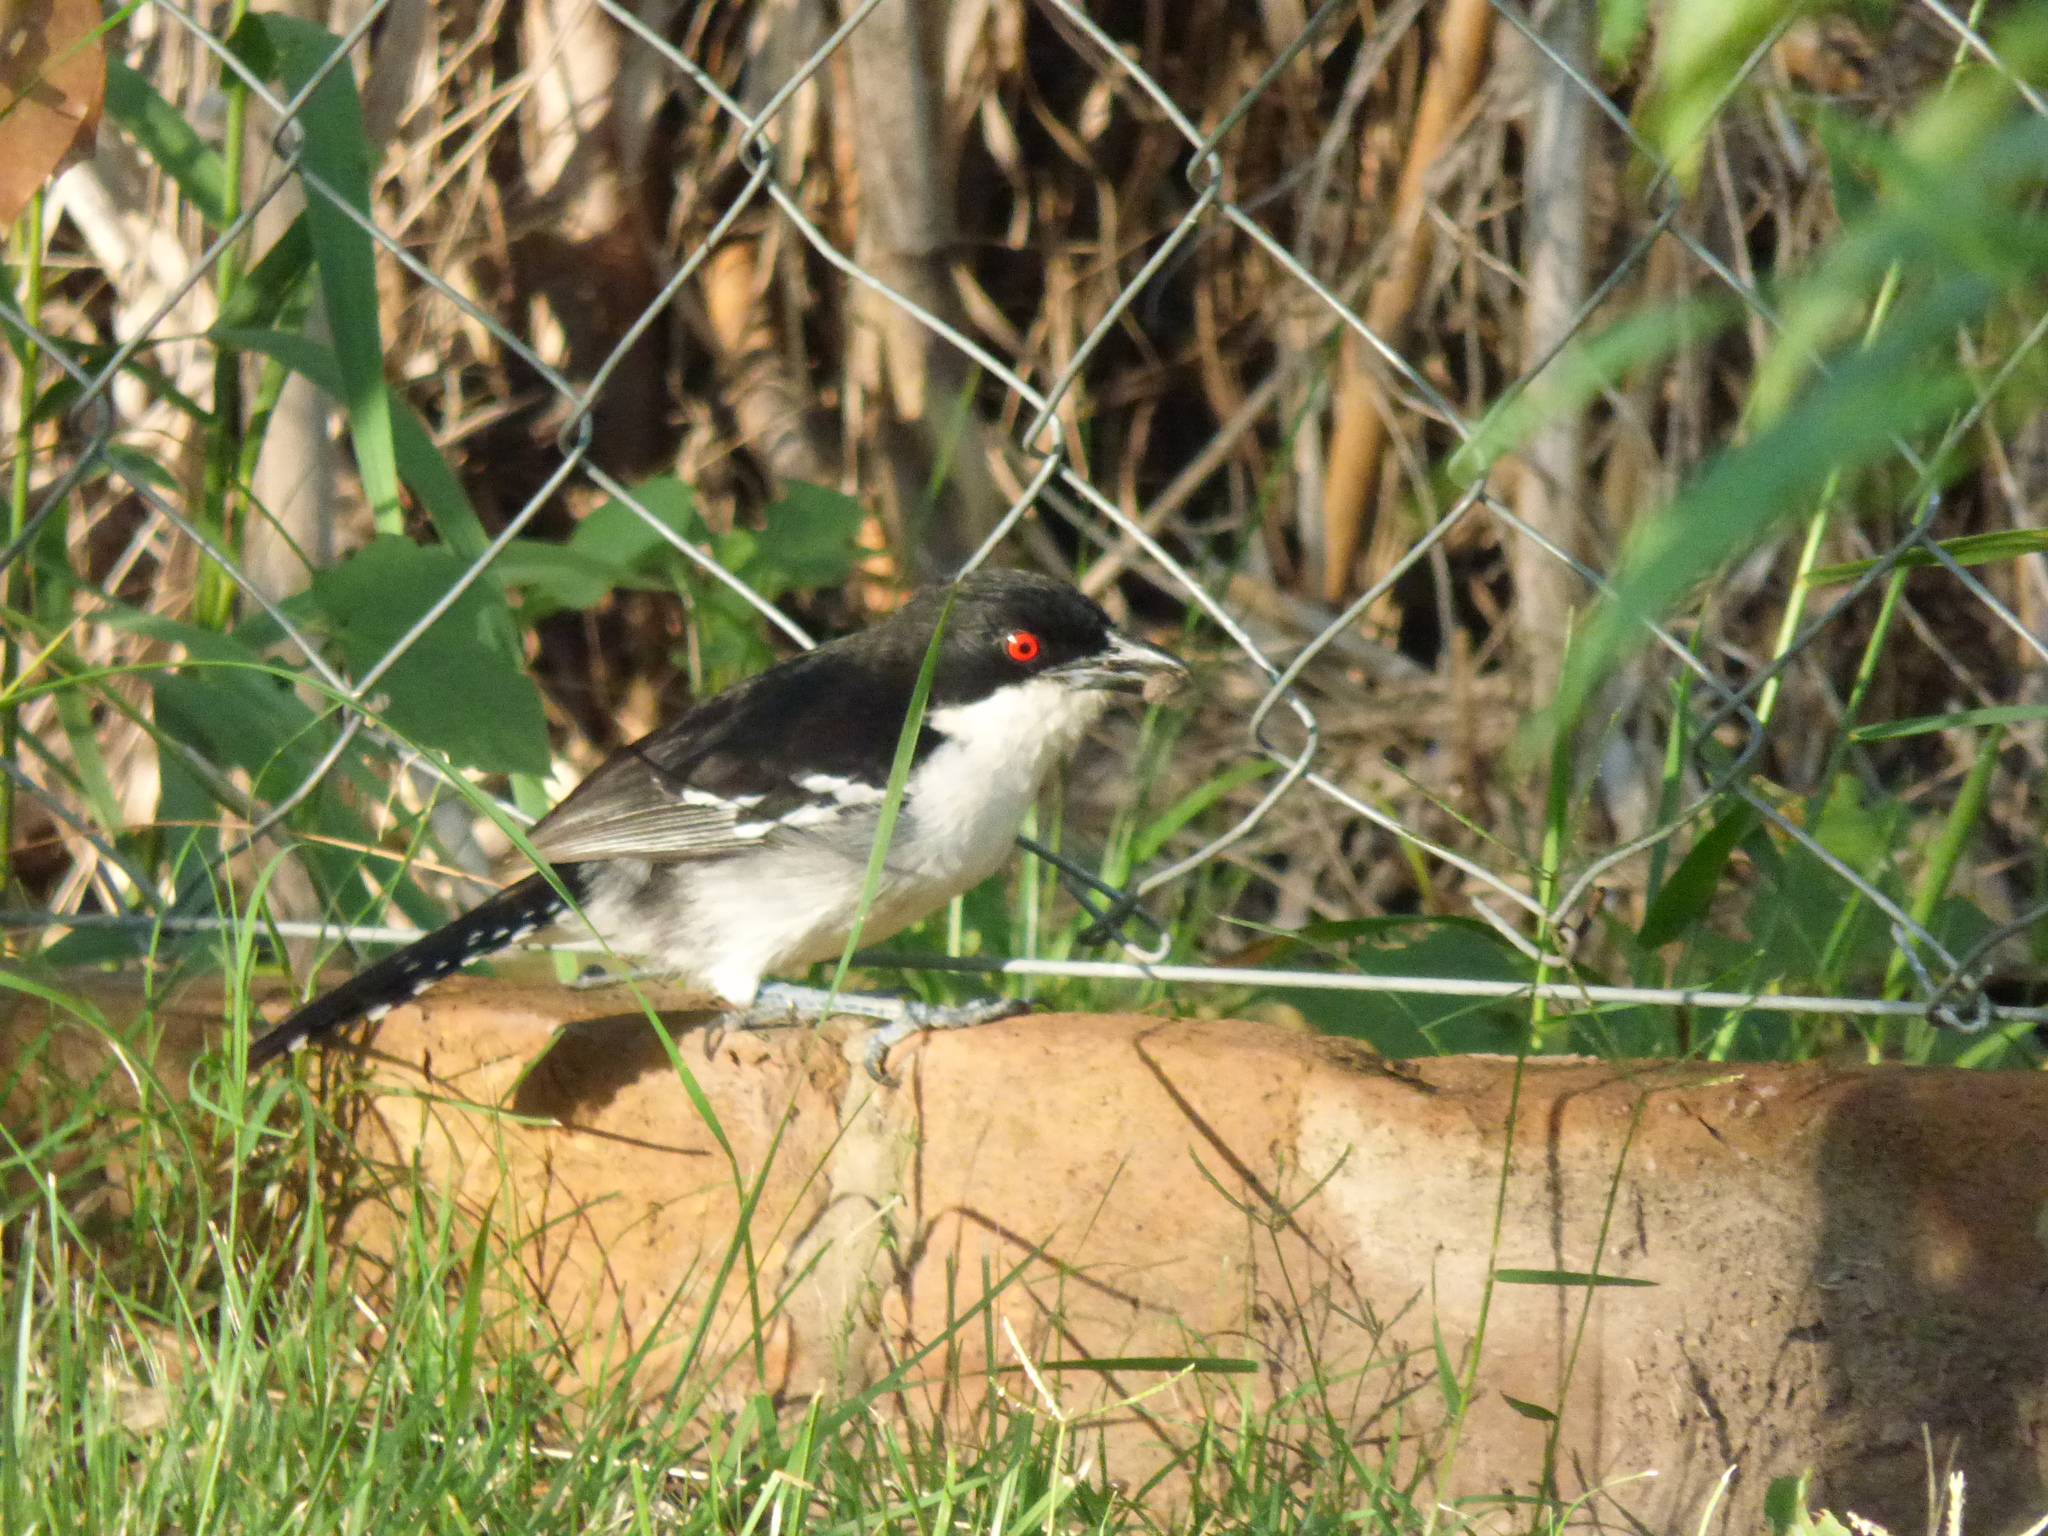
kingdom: Animalia
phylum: Chordata
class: Aves
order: Passeriformes
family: Thamnophilidae
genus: Taraba
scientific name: Taraba major
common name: Great antshrike
